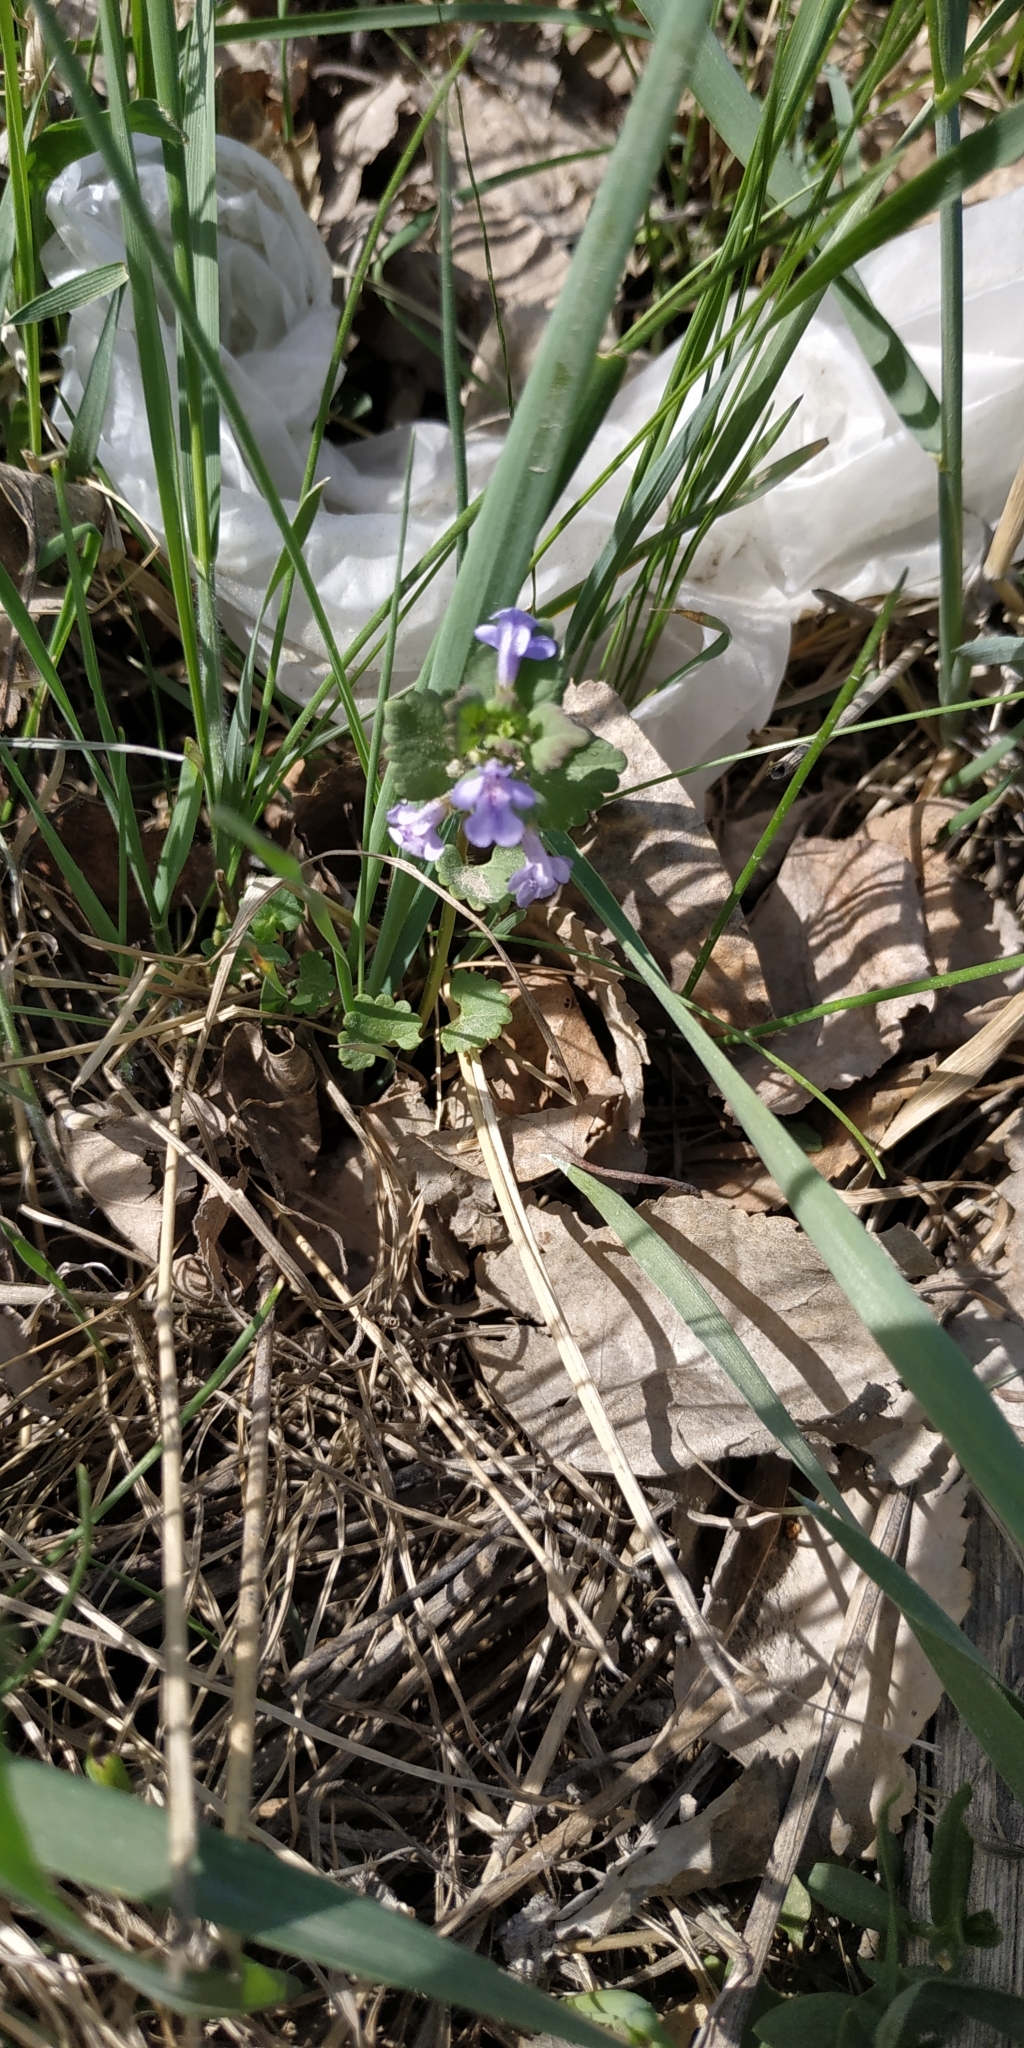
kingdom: Plantae
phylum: Tracheophyta
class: Magnoliopsida
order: Lamiales
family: Lamiaceae
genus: Glechoma
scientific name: Glechoma hederacea
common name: Ground ivy
